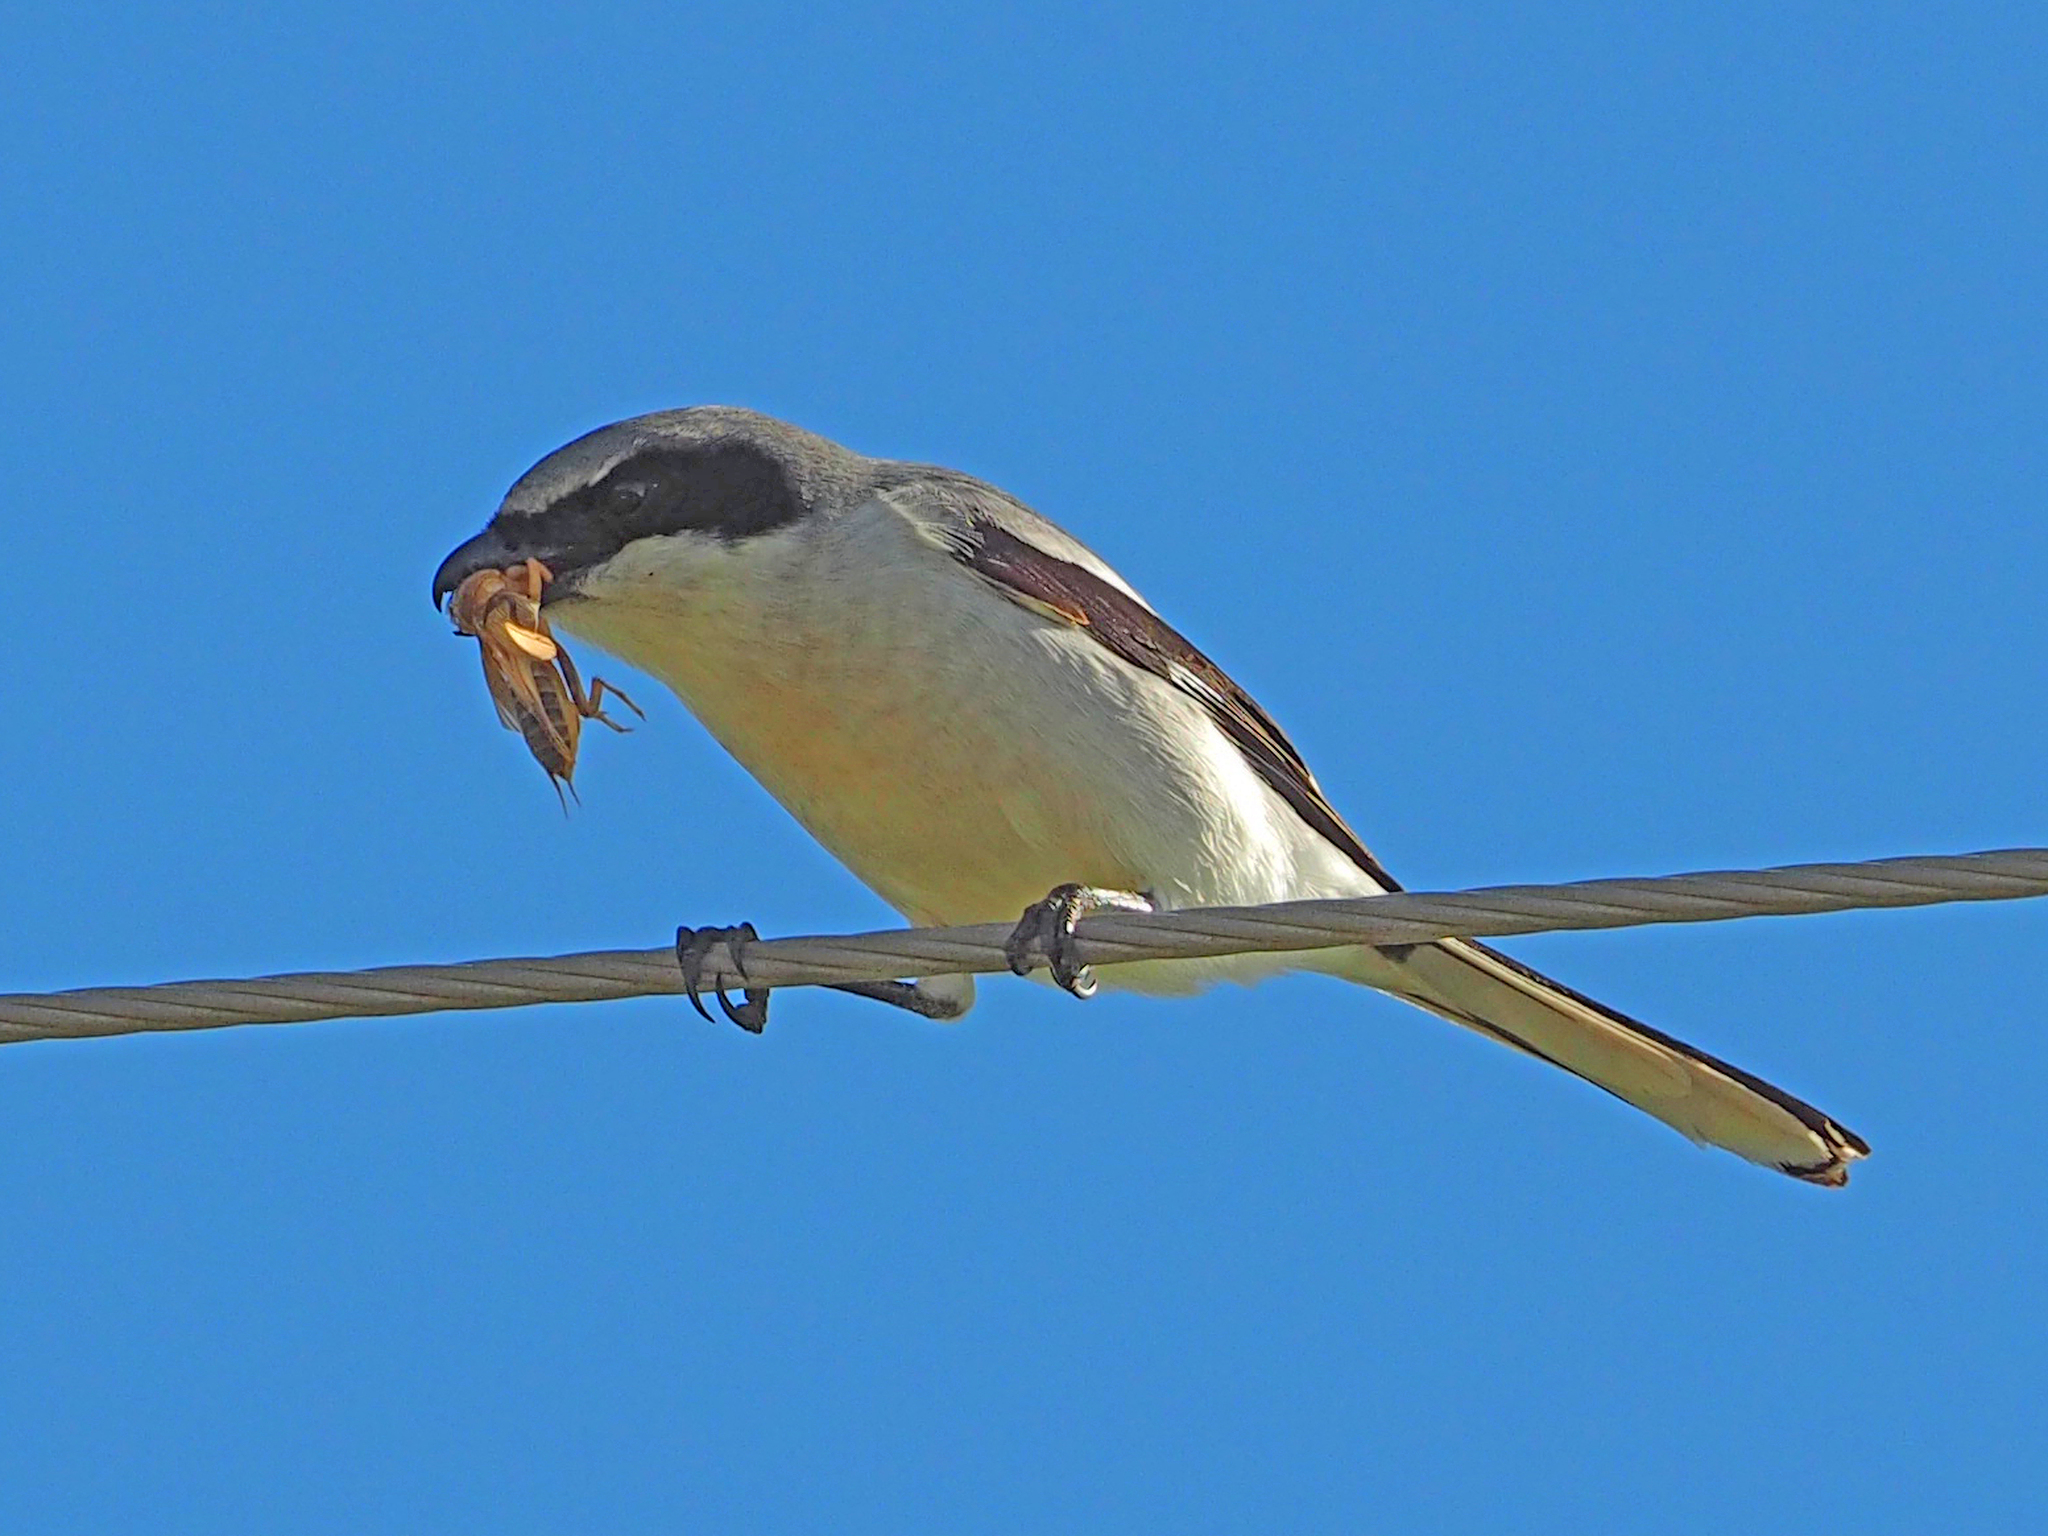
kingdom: Animalia
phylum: Chordata
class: Aves
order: Passeriformes
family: Laniidae
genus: Lanius
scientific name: Lanius ludovicianus
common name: Loggerhead shrike
